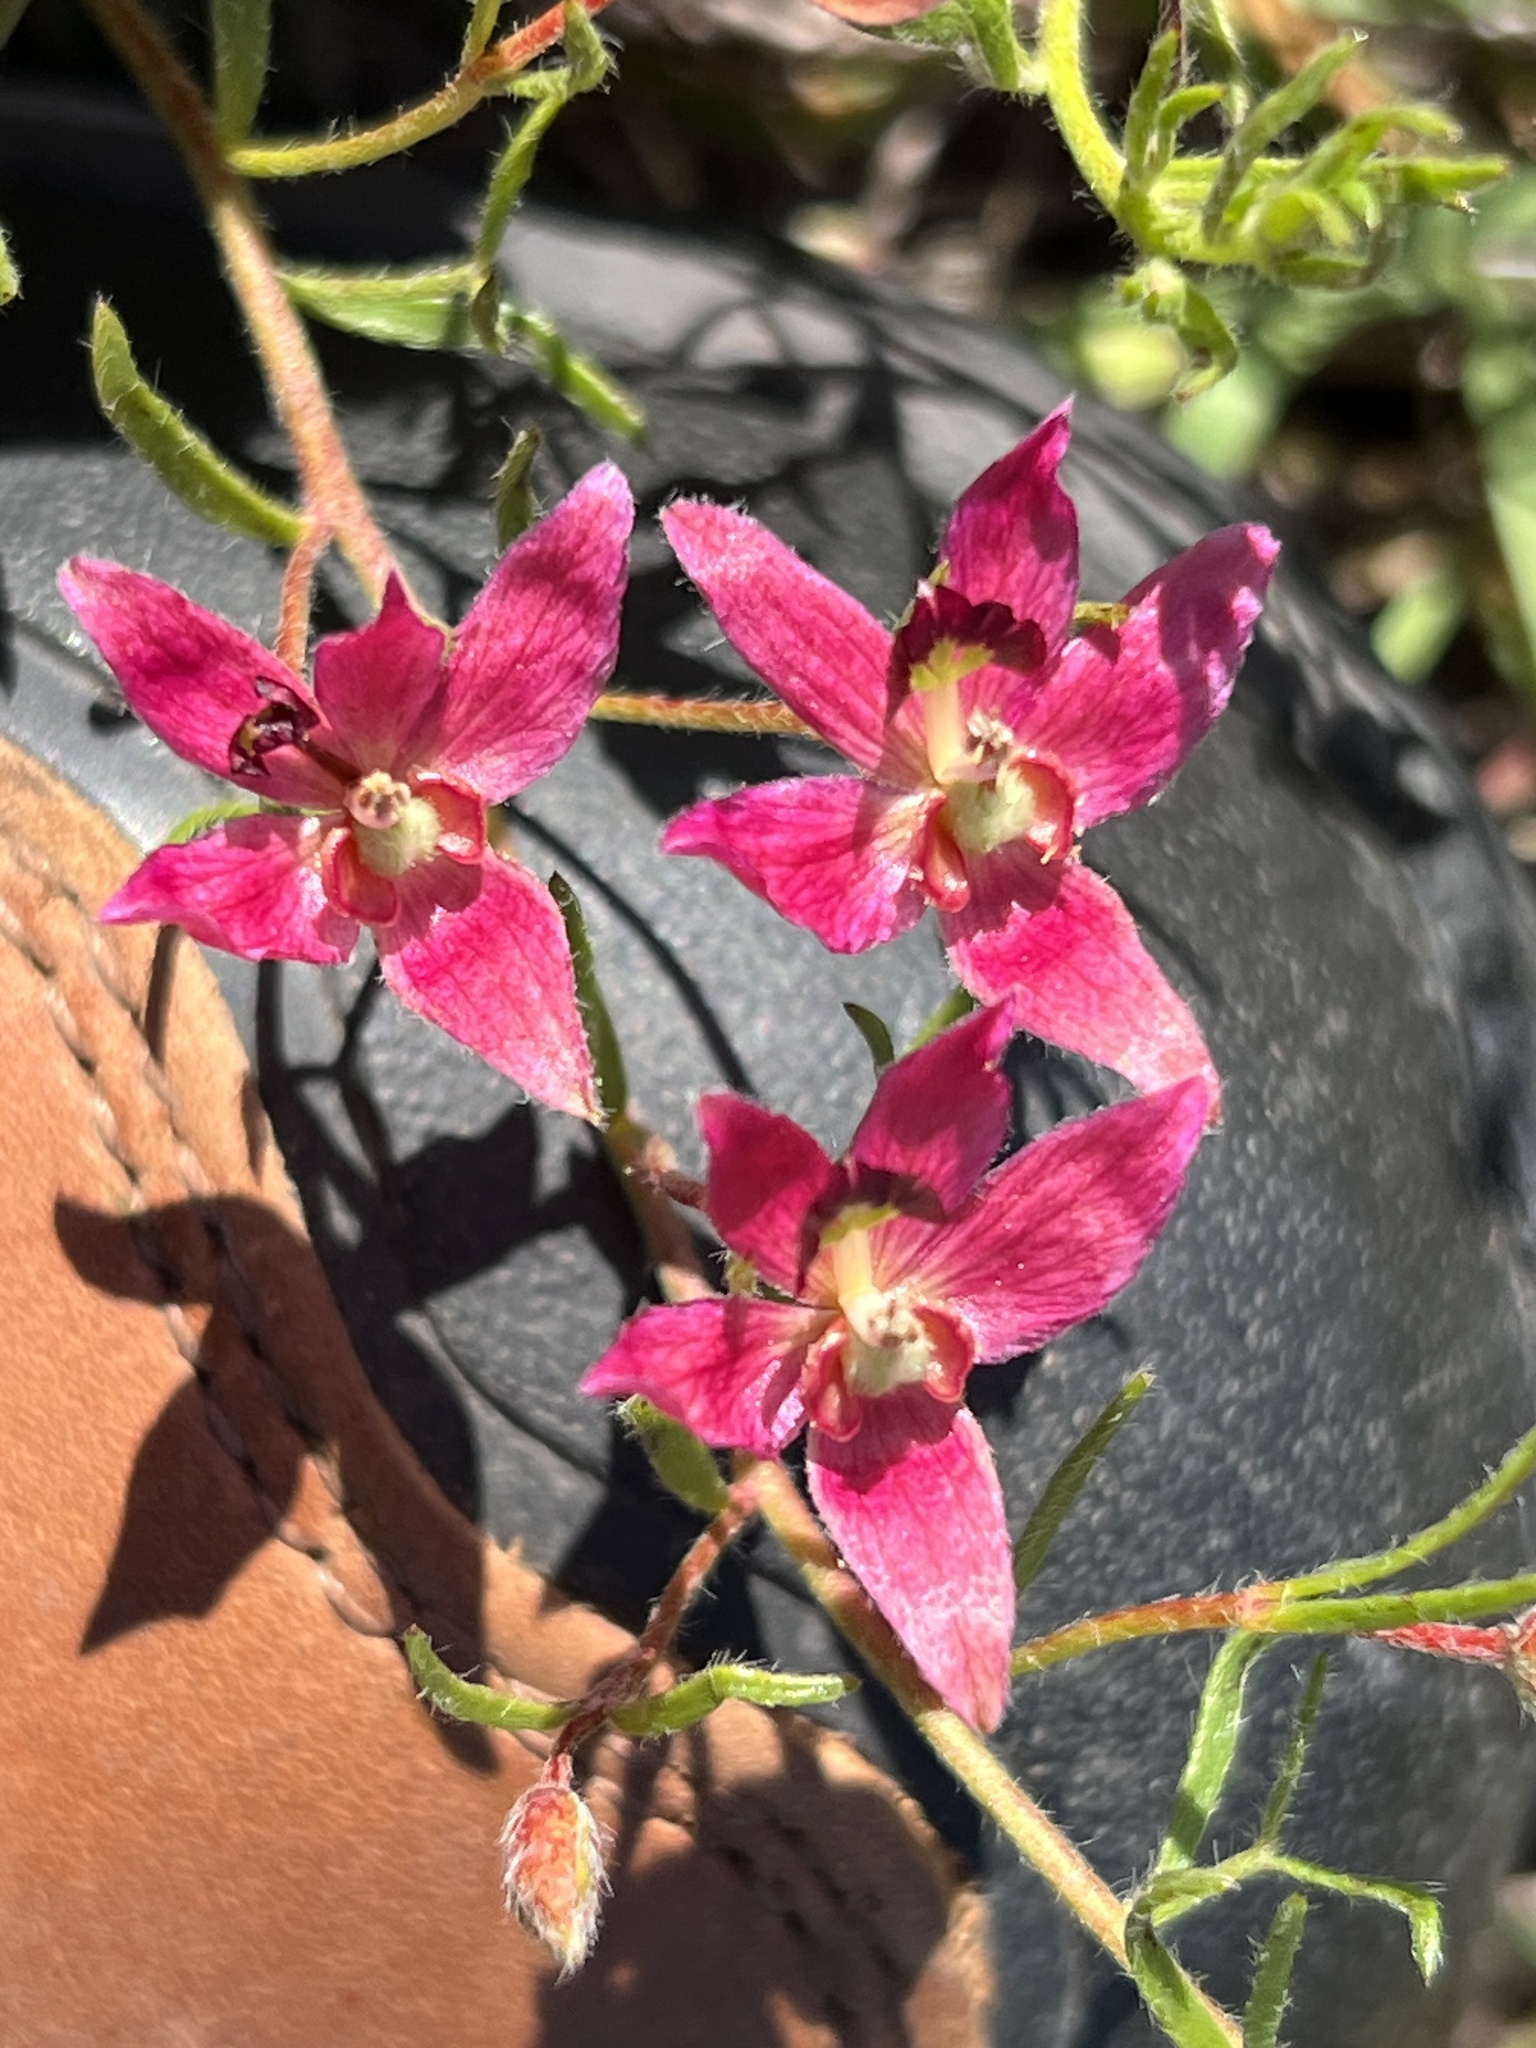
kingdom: Plantae
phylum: Tracheophyta
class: Magnoliopsida
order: Zygophyllales
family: Krameriaceae
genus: Krameria
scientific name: Krameria lanceolata
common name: Ratany
